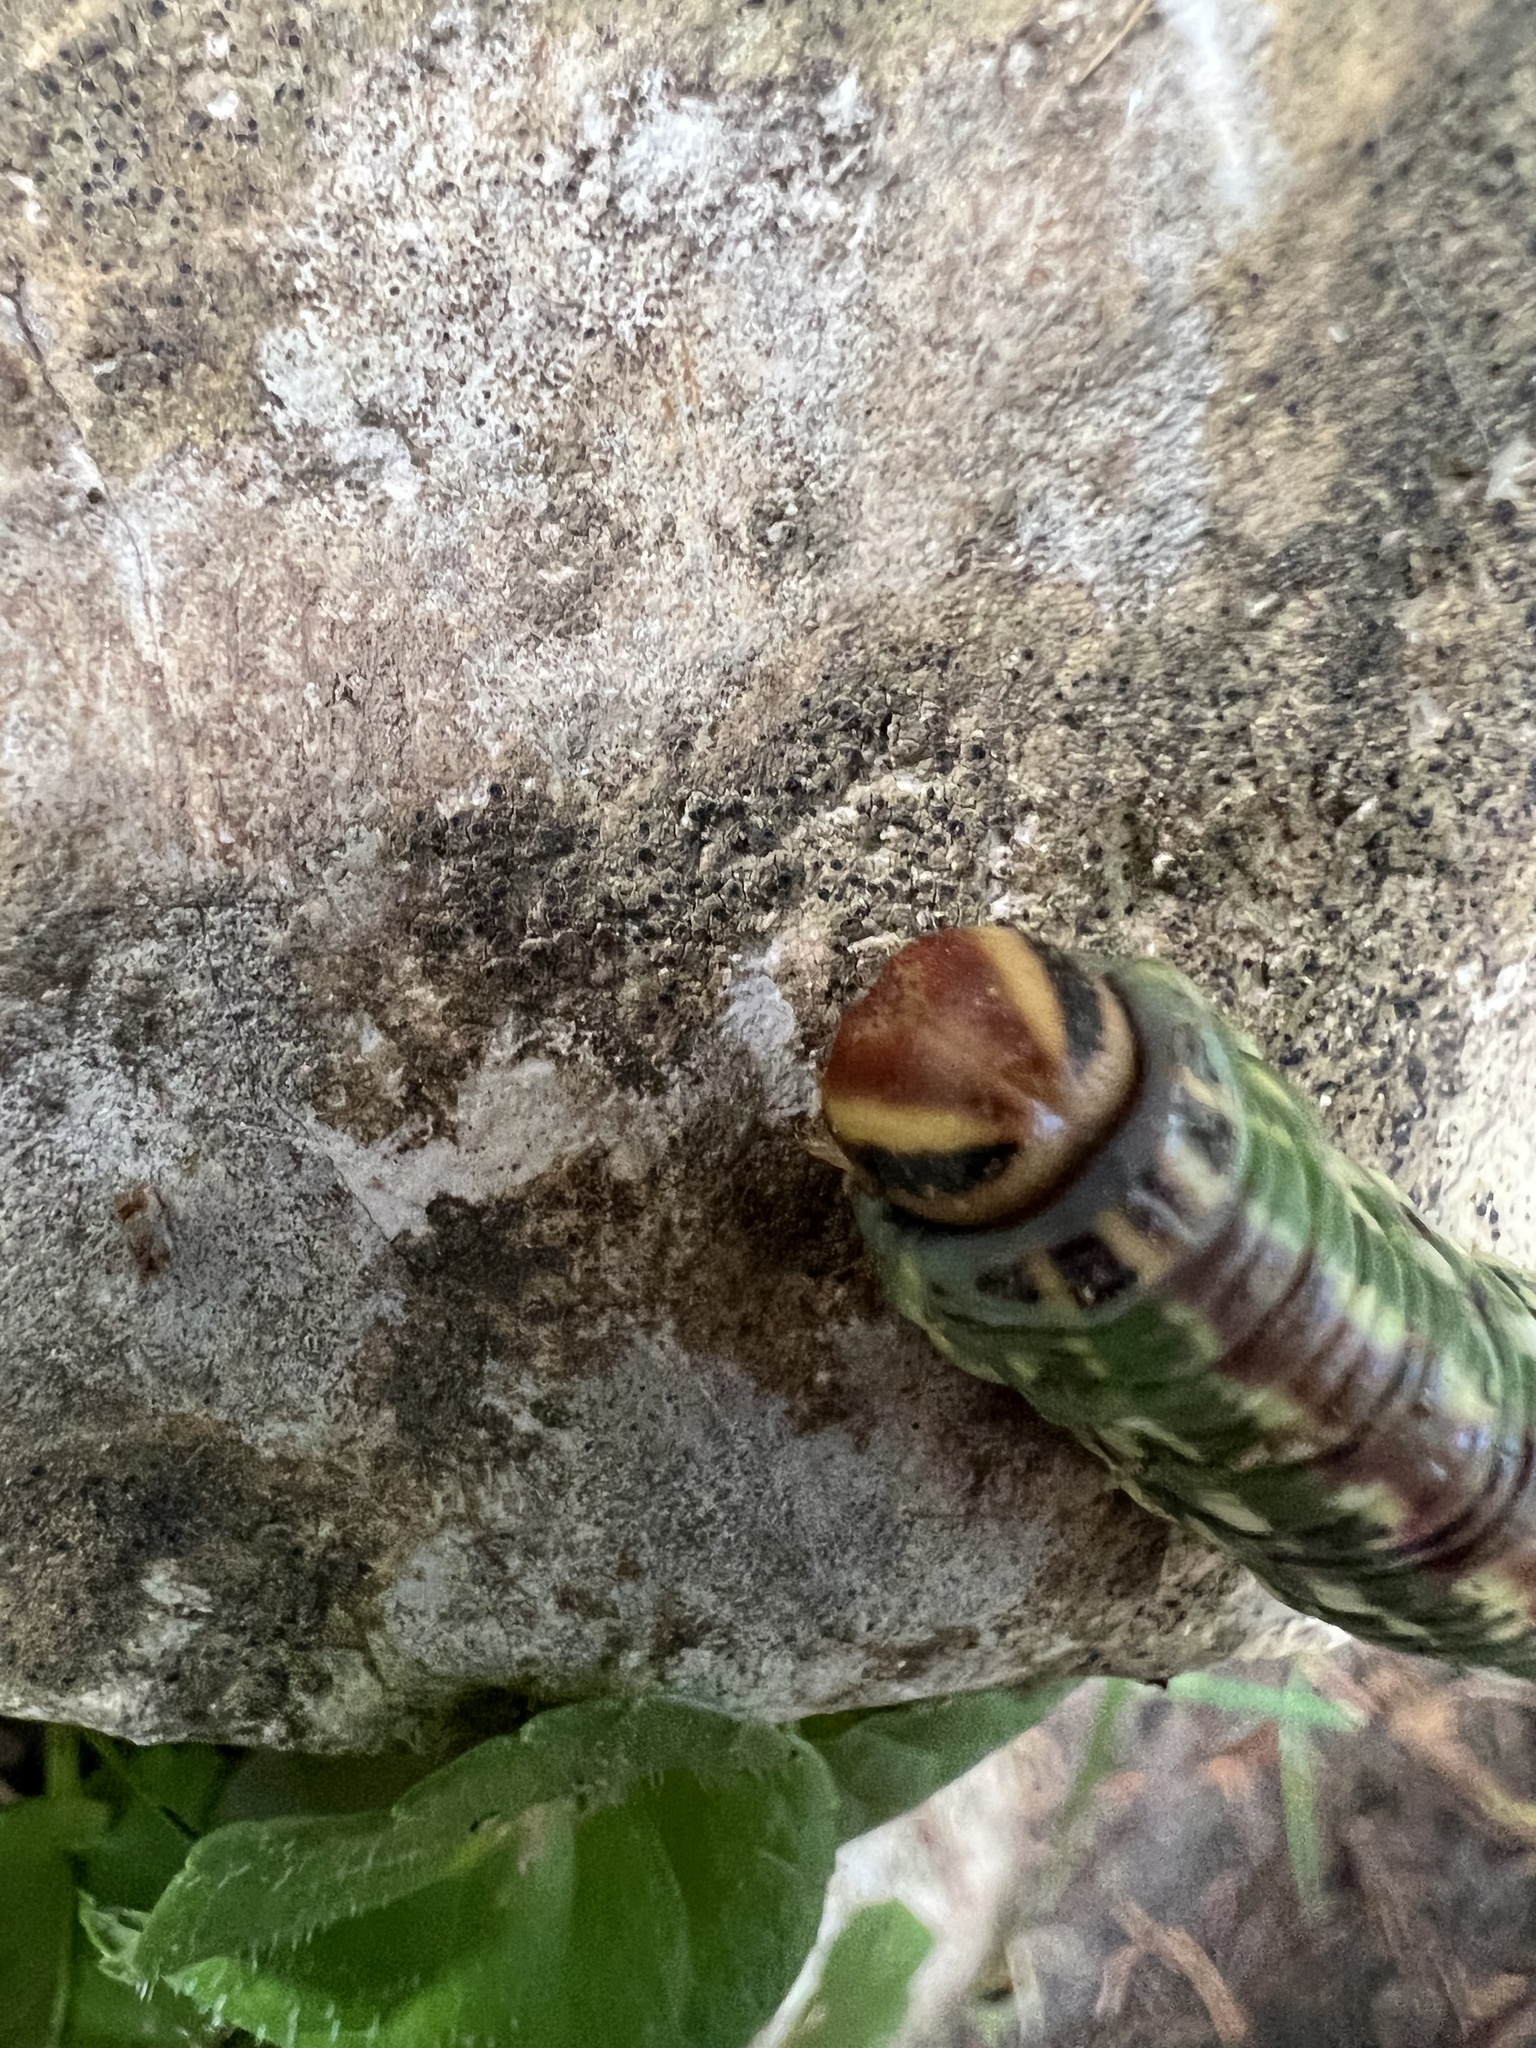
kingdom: Animalia
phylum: Arthropoda
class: Insecta
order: Lepidoptera
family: Sphingidae
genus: Sphinx
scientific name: Sphinx pinastri
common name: Pine hawk-moth
